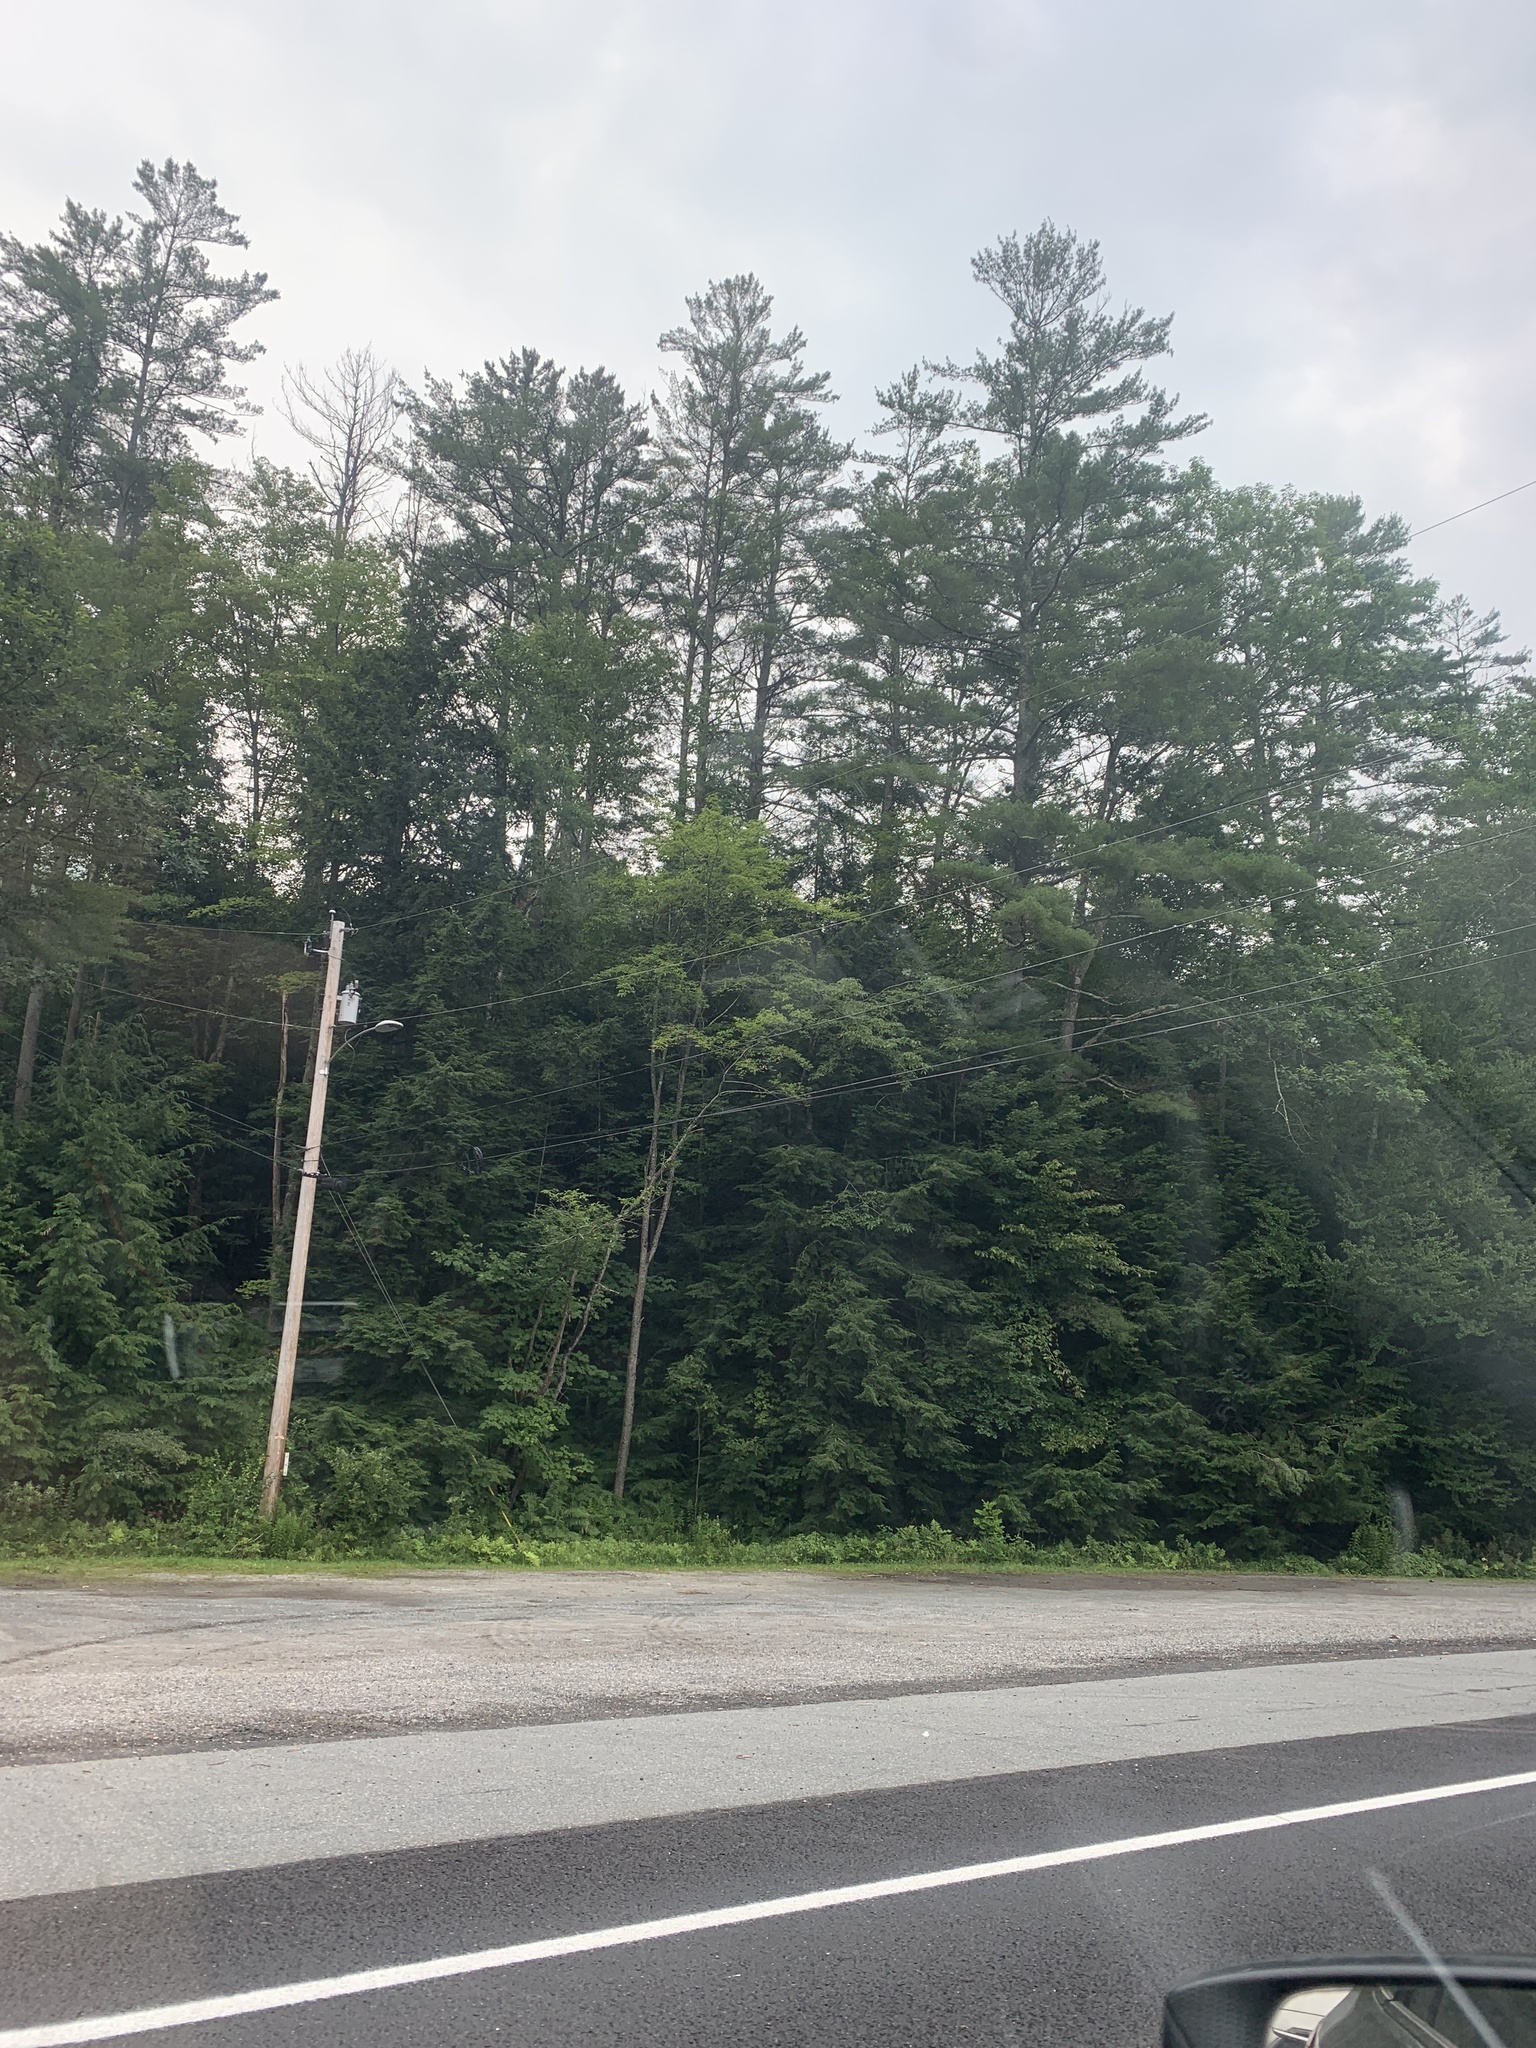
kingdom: Plantae
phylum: Tracheophyta
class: Pinopsida
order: Pinales
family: Pinaceae
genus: Pinus
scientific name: Pinus strobus
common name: Weymouth pine
